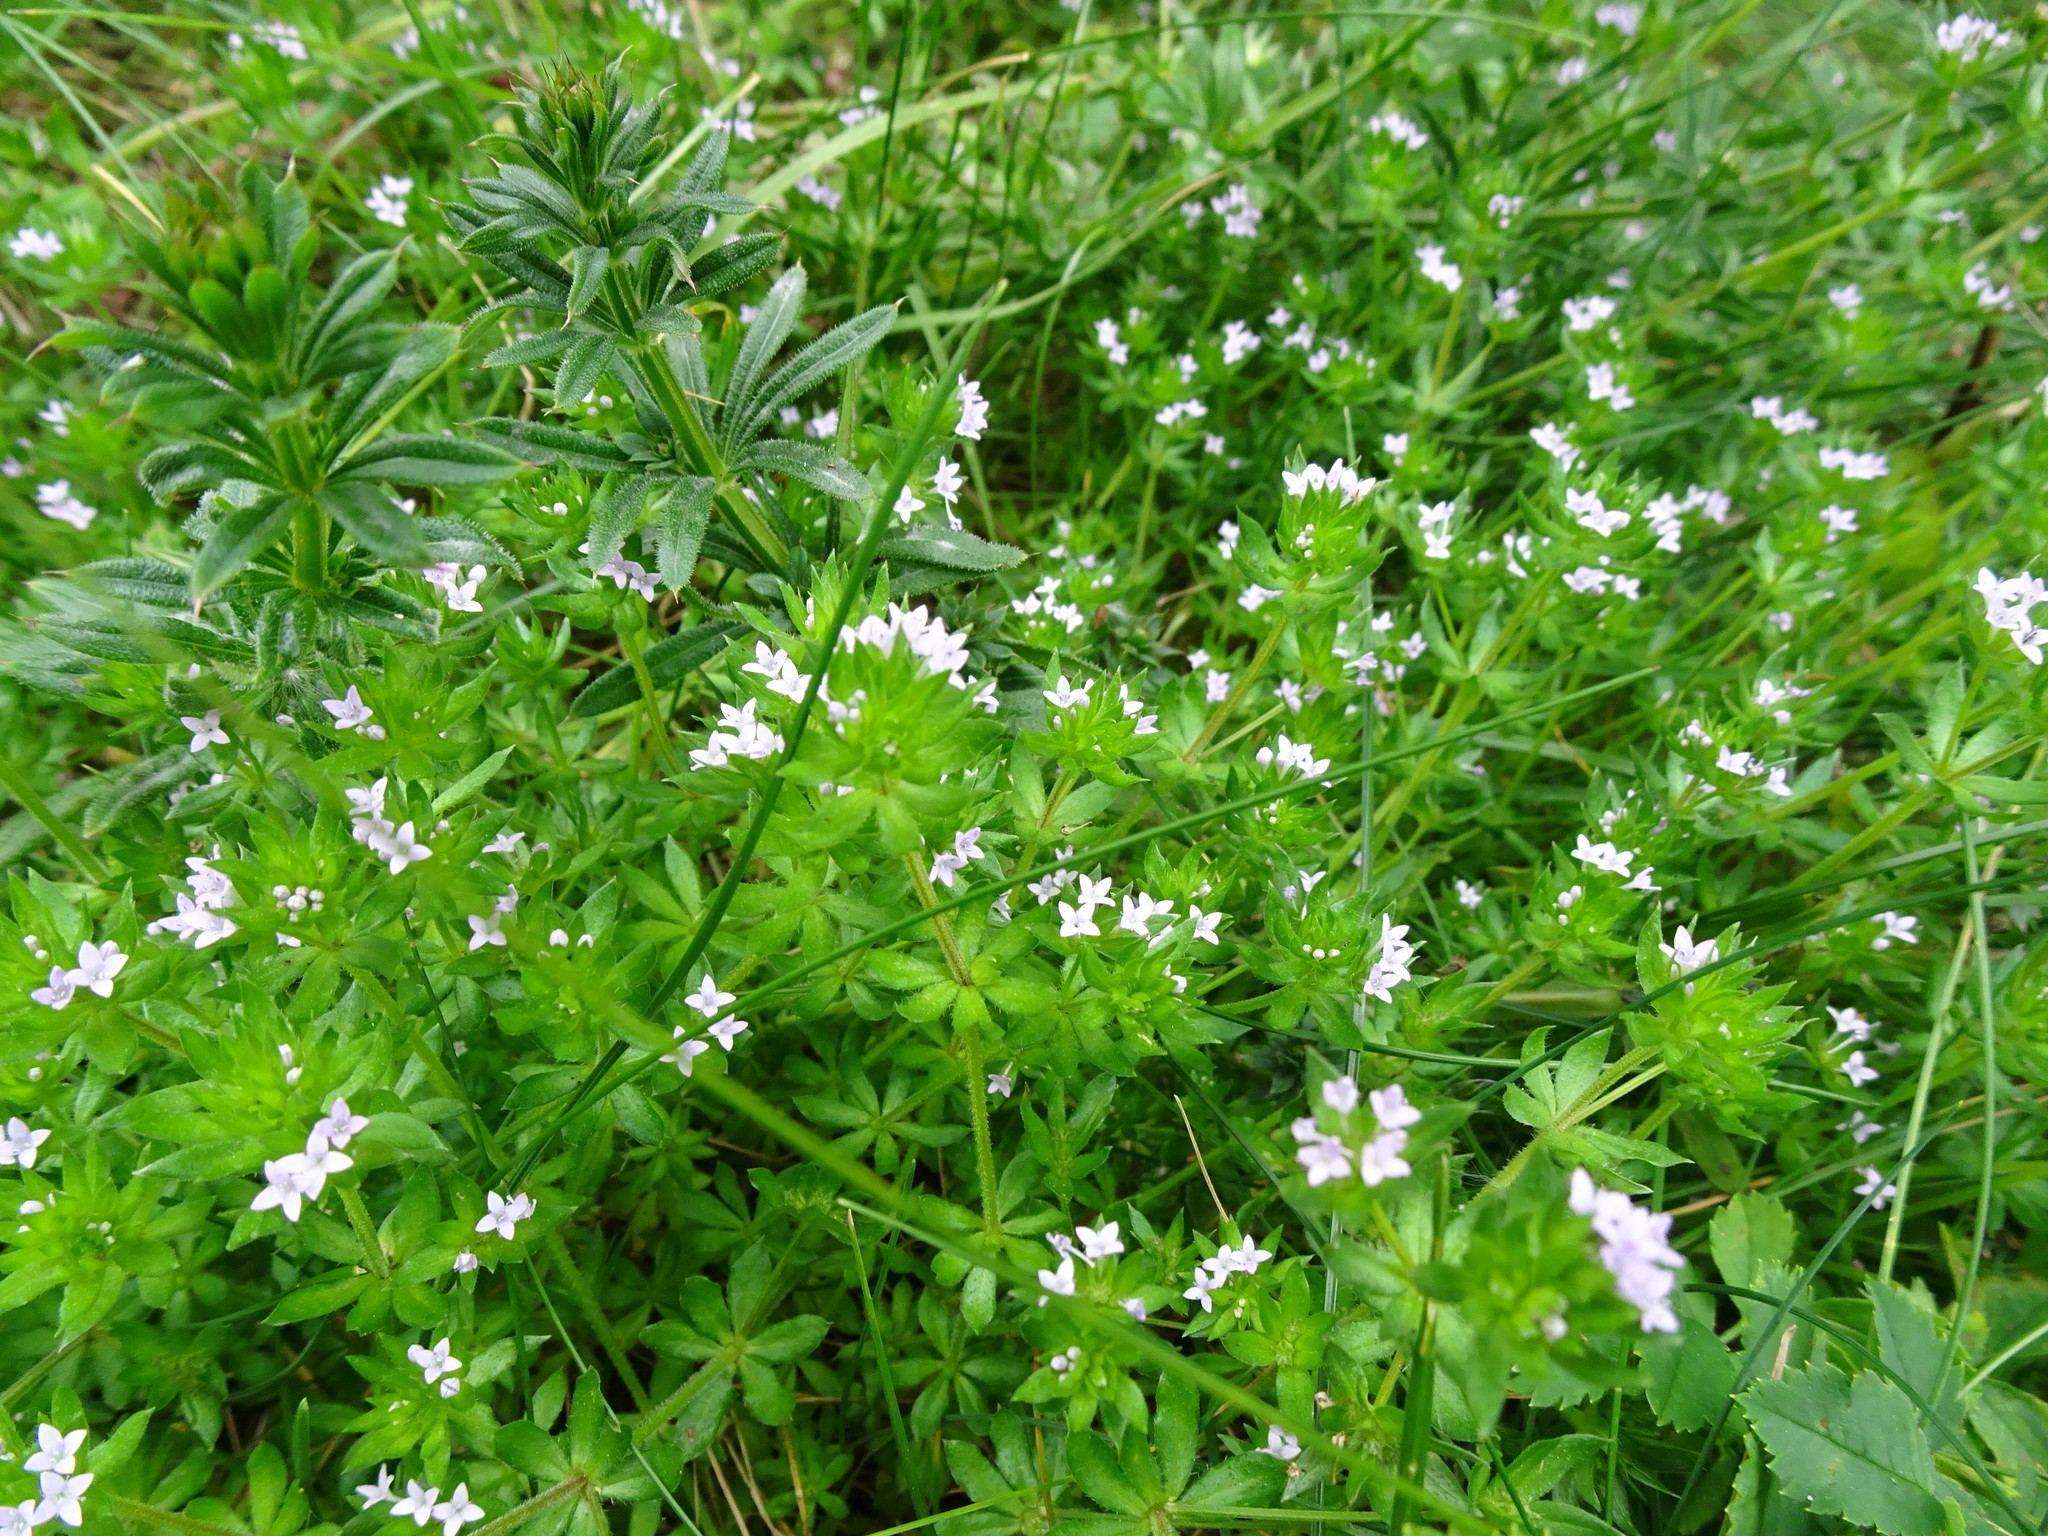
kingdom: Plantae
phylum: Tracheophyta
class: Magnoliopsida
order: Gentianales
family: Rubiaceae
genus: Sherardia
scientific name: Sherardia arvensis
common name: Field madder
